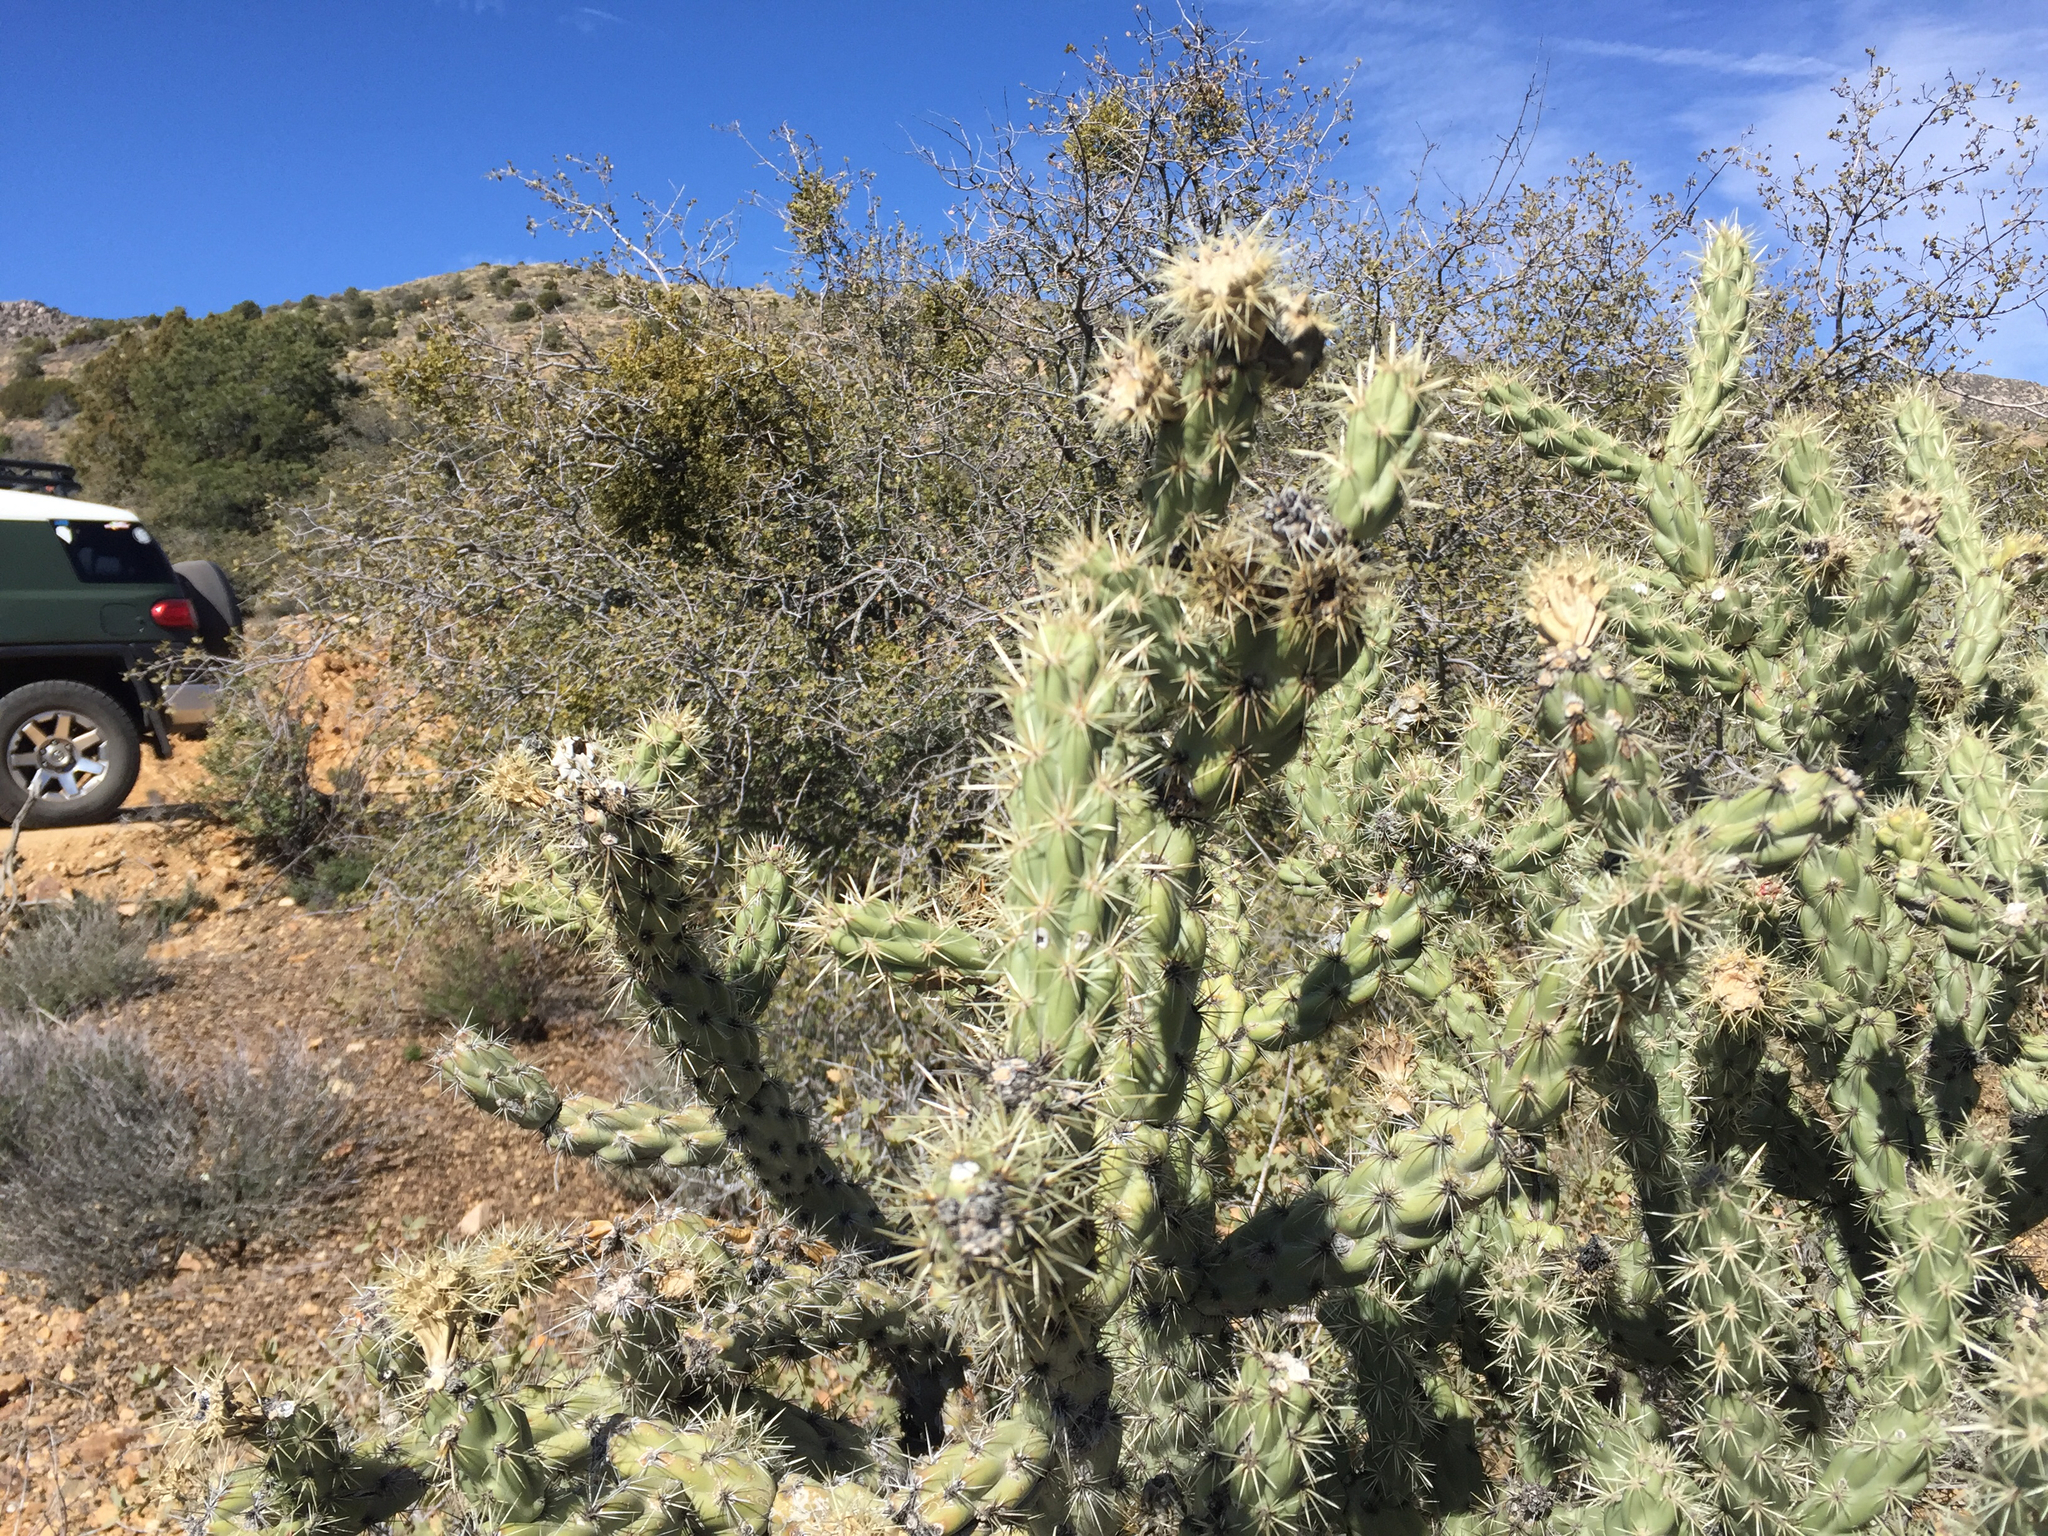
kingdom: Plantae
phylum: Tracheophyta
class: Magnoliopsida
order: Caryophyllales
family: Cactaceae
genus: Cylindropuntia
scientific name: Cylindropuntia acanthocarpa
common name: Buckhorn cholla
